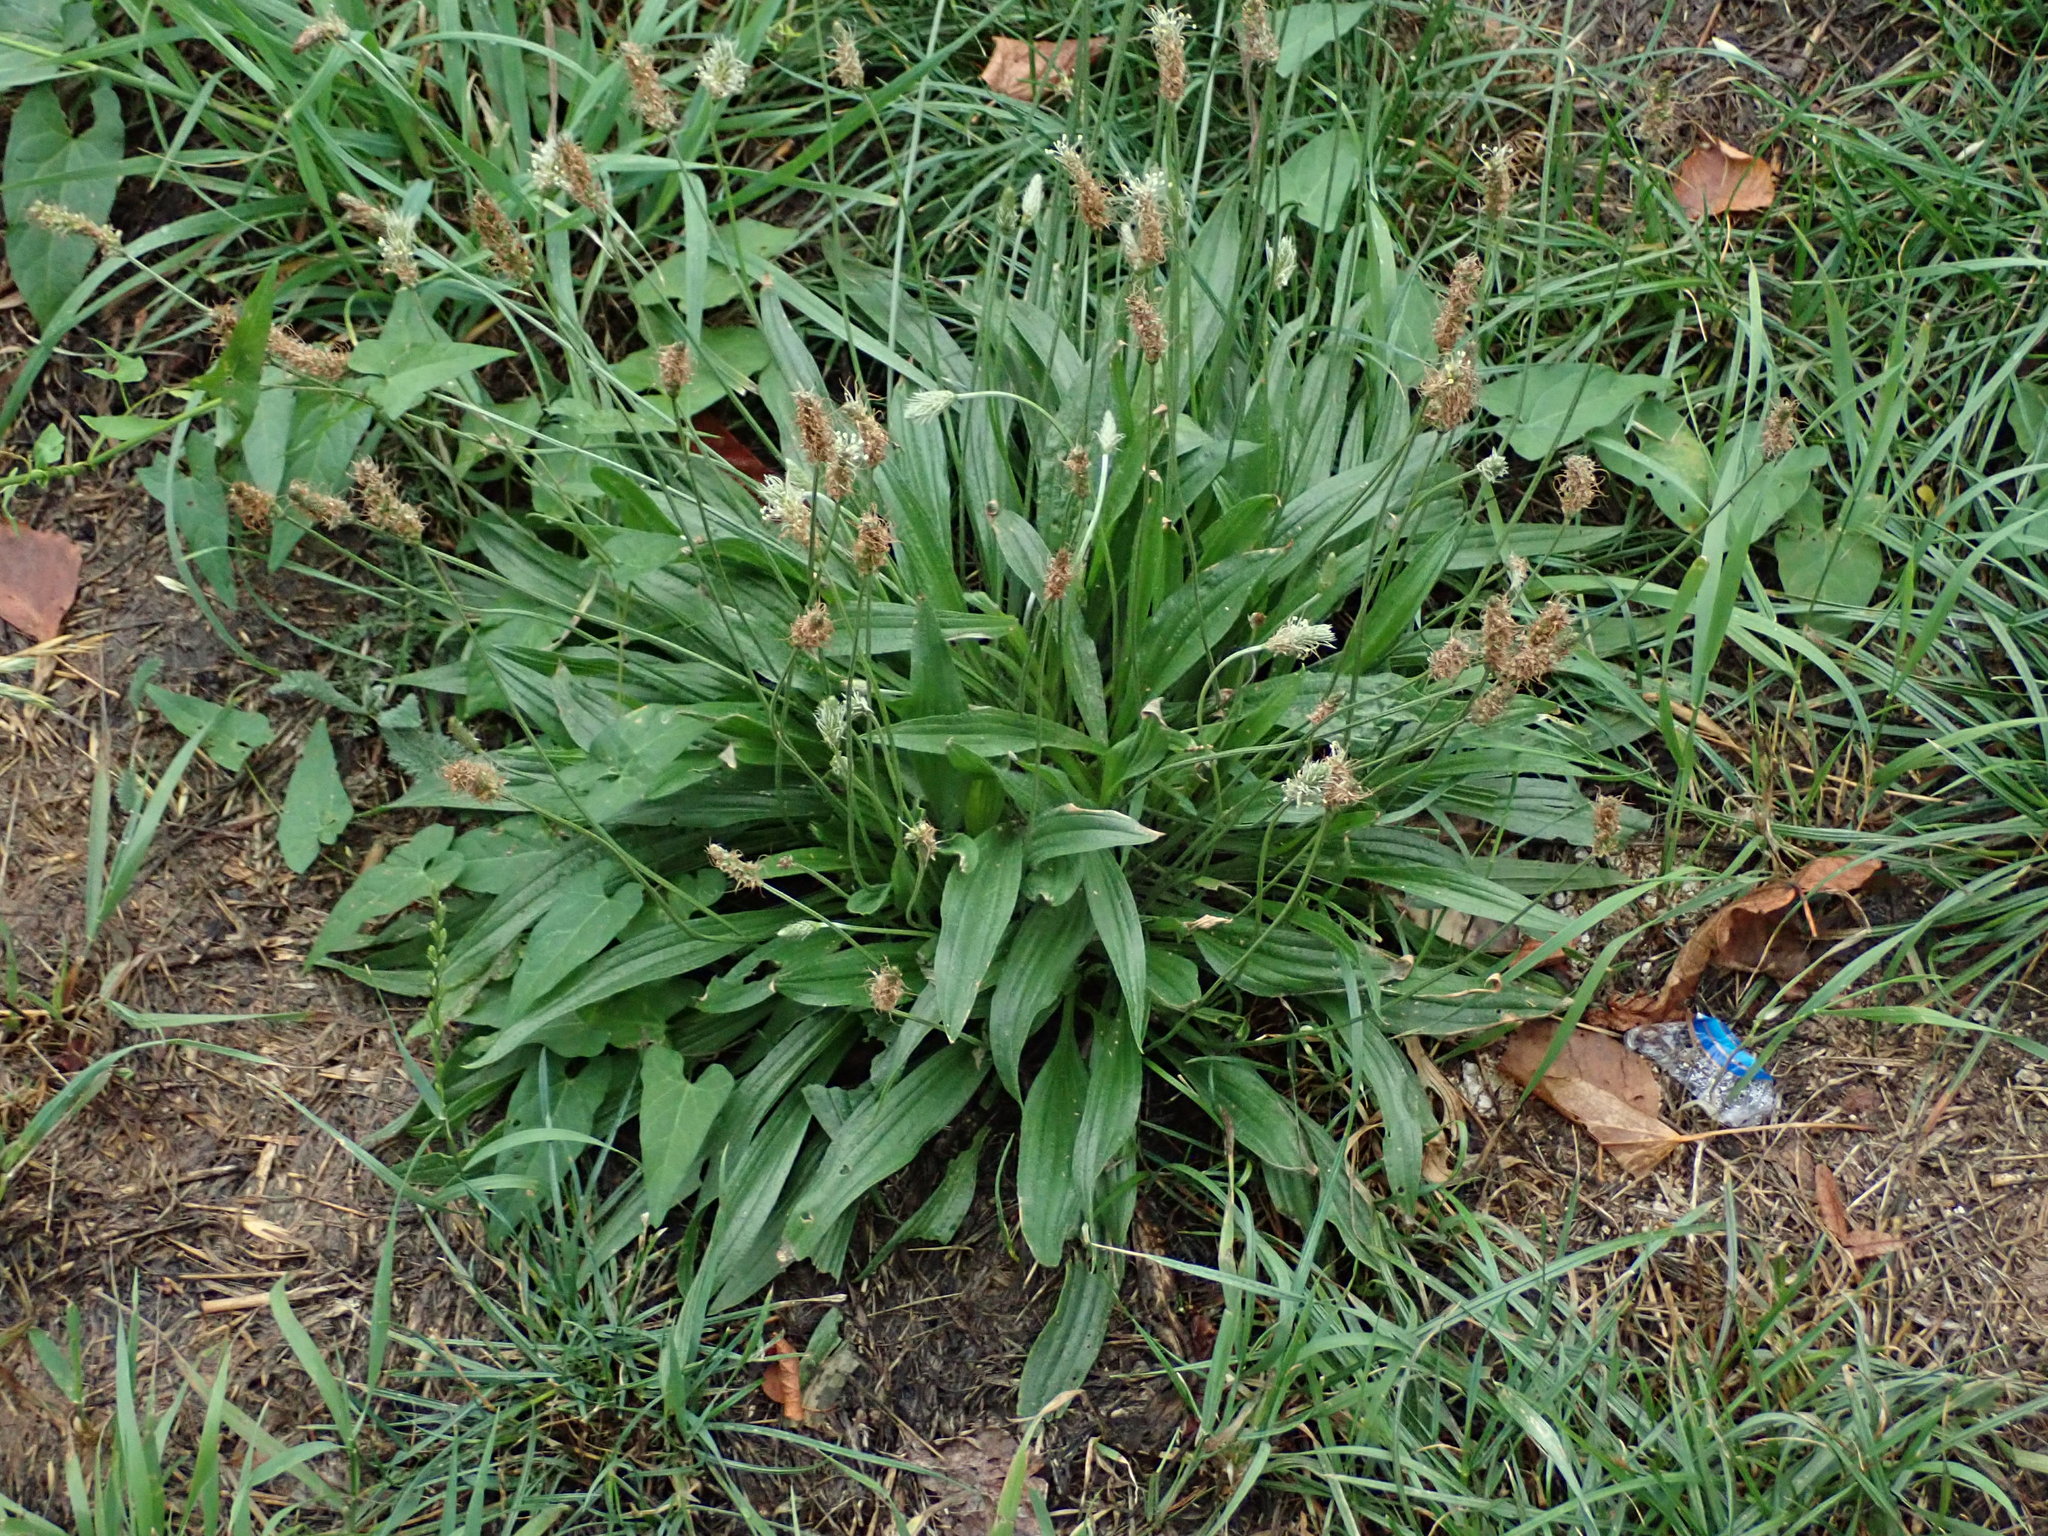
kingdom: Plantae
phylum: Tracheophyta
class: Magnoliopsida
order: Lamiales
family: Plantaginaceae
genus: Plantago
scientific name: Plantago lanceolata
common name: Ribwort plantain
